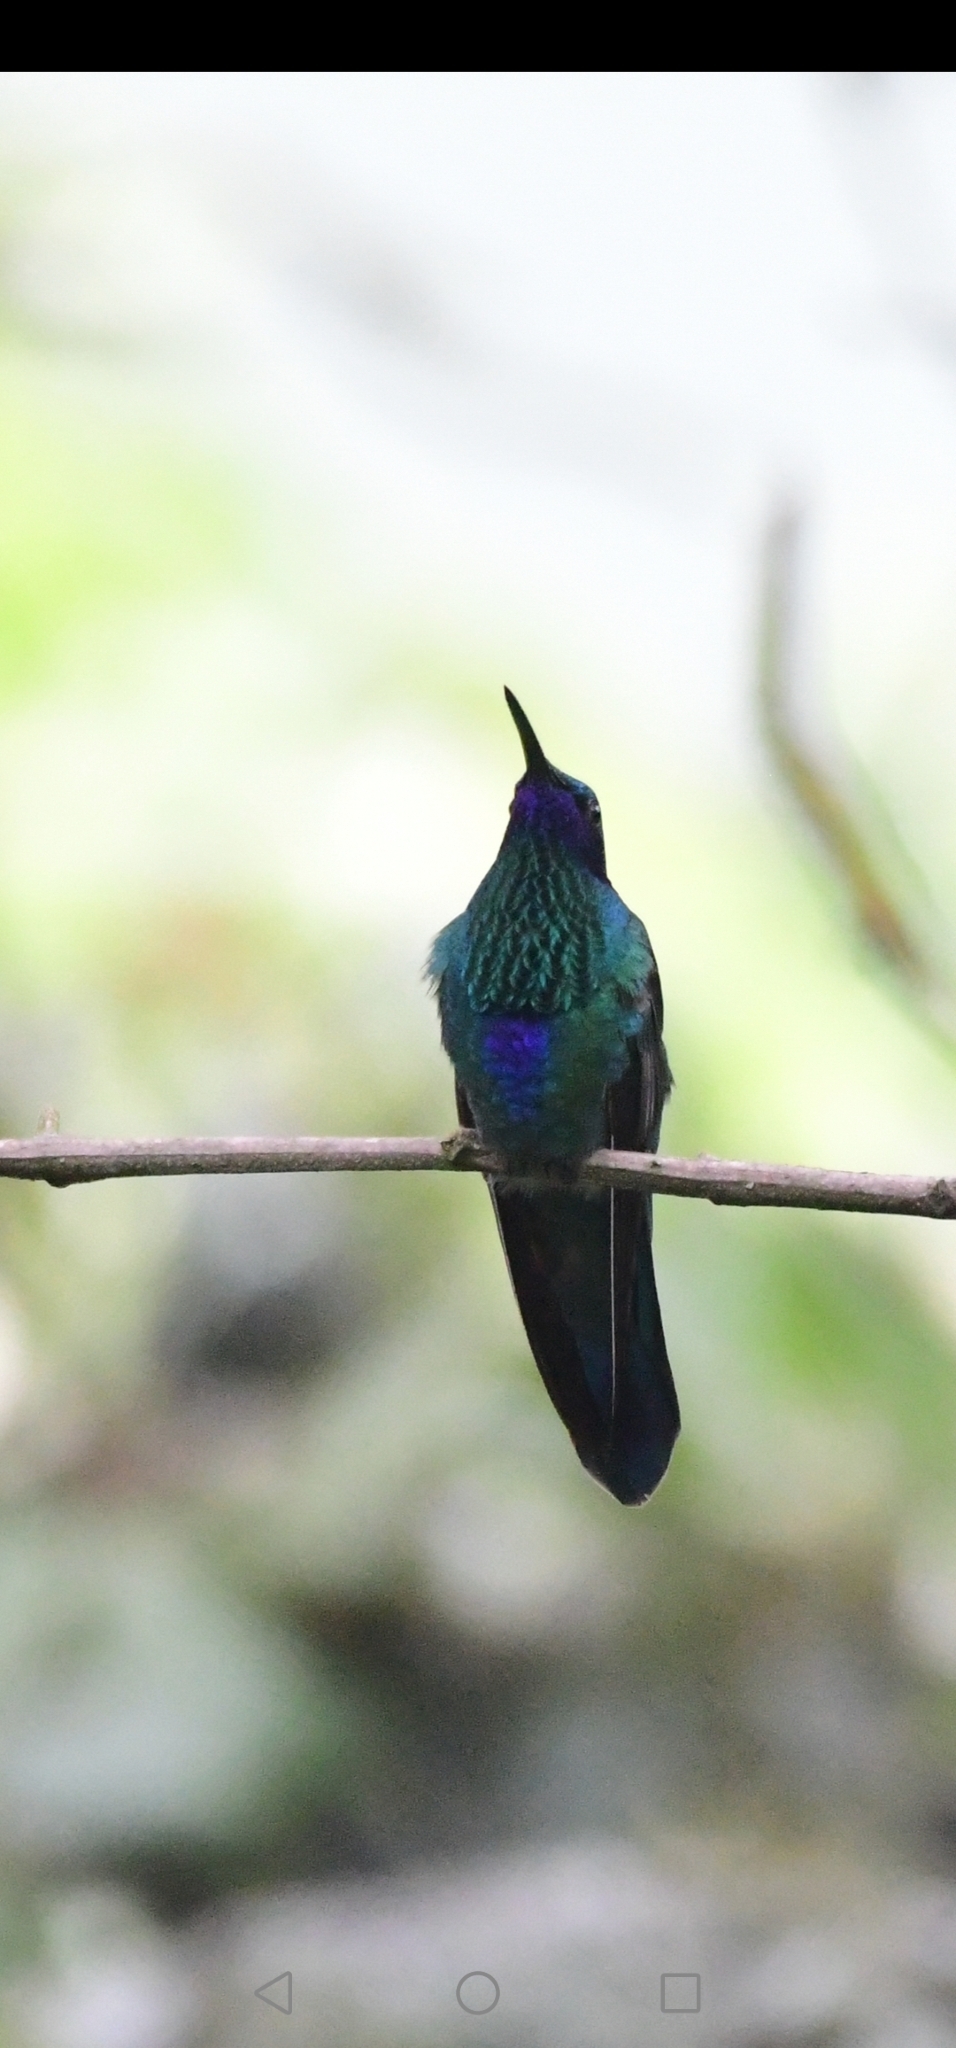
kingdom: Animalia
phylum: Chordata
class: Aves
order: Apodiformes
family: Trochilidae
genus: Colibri
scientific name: Colibri coruscans
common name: Sparkling violetear
